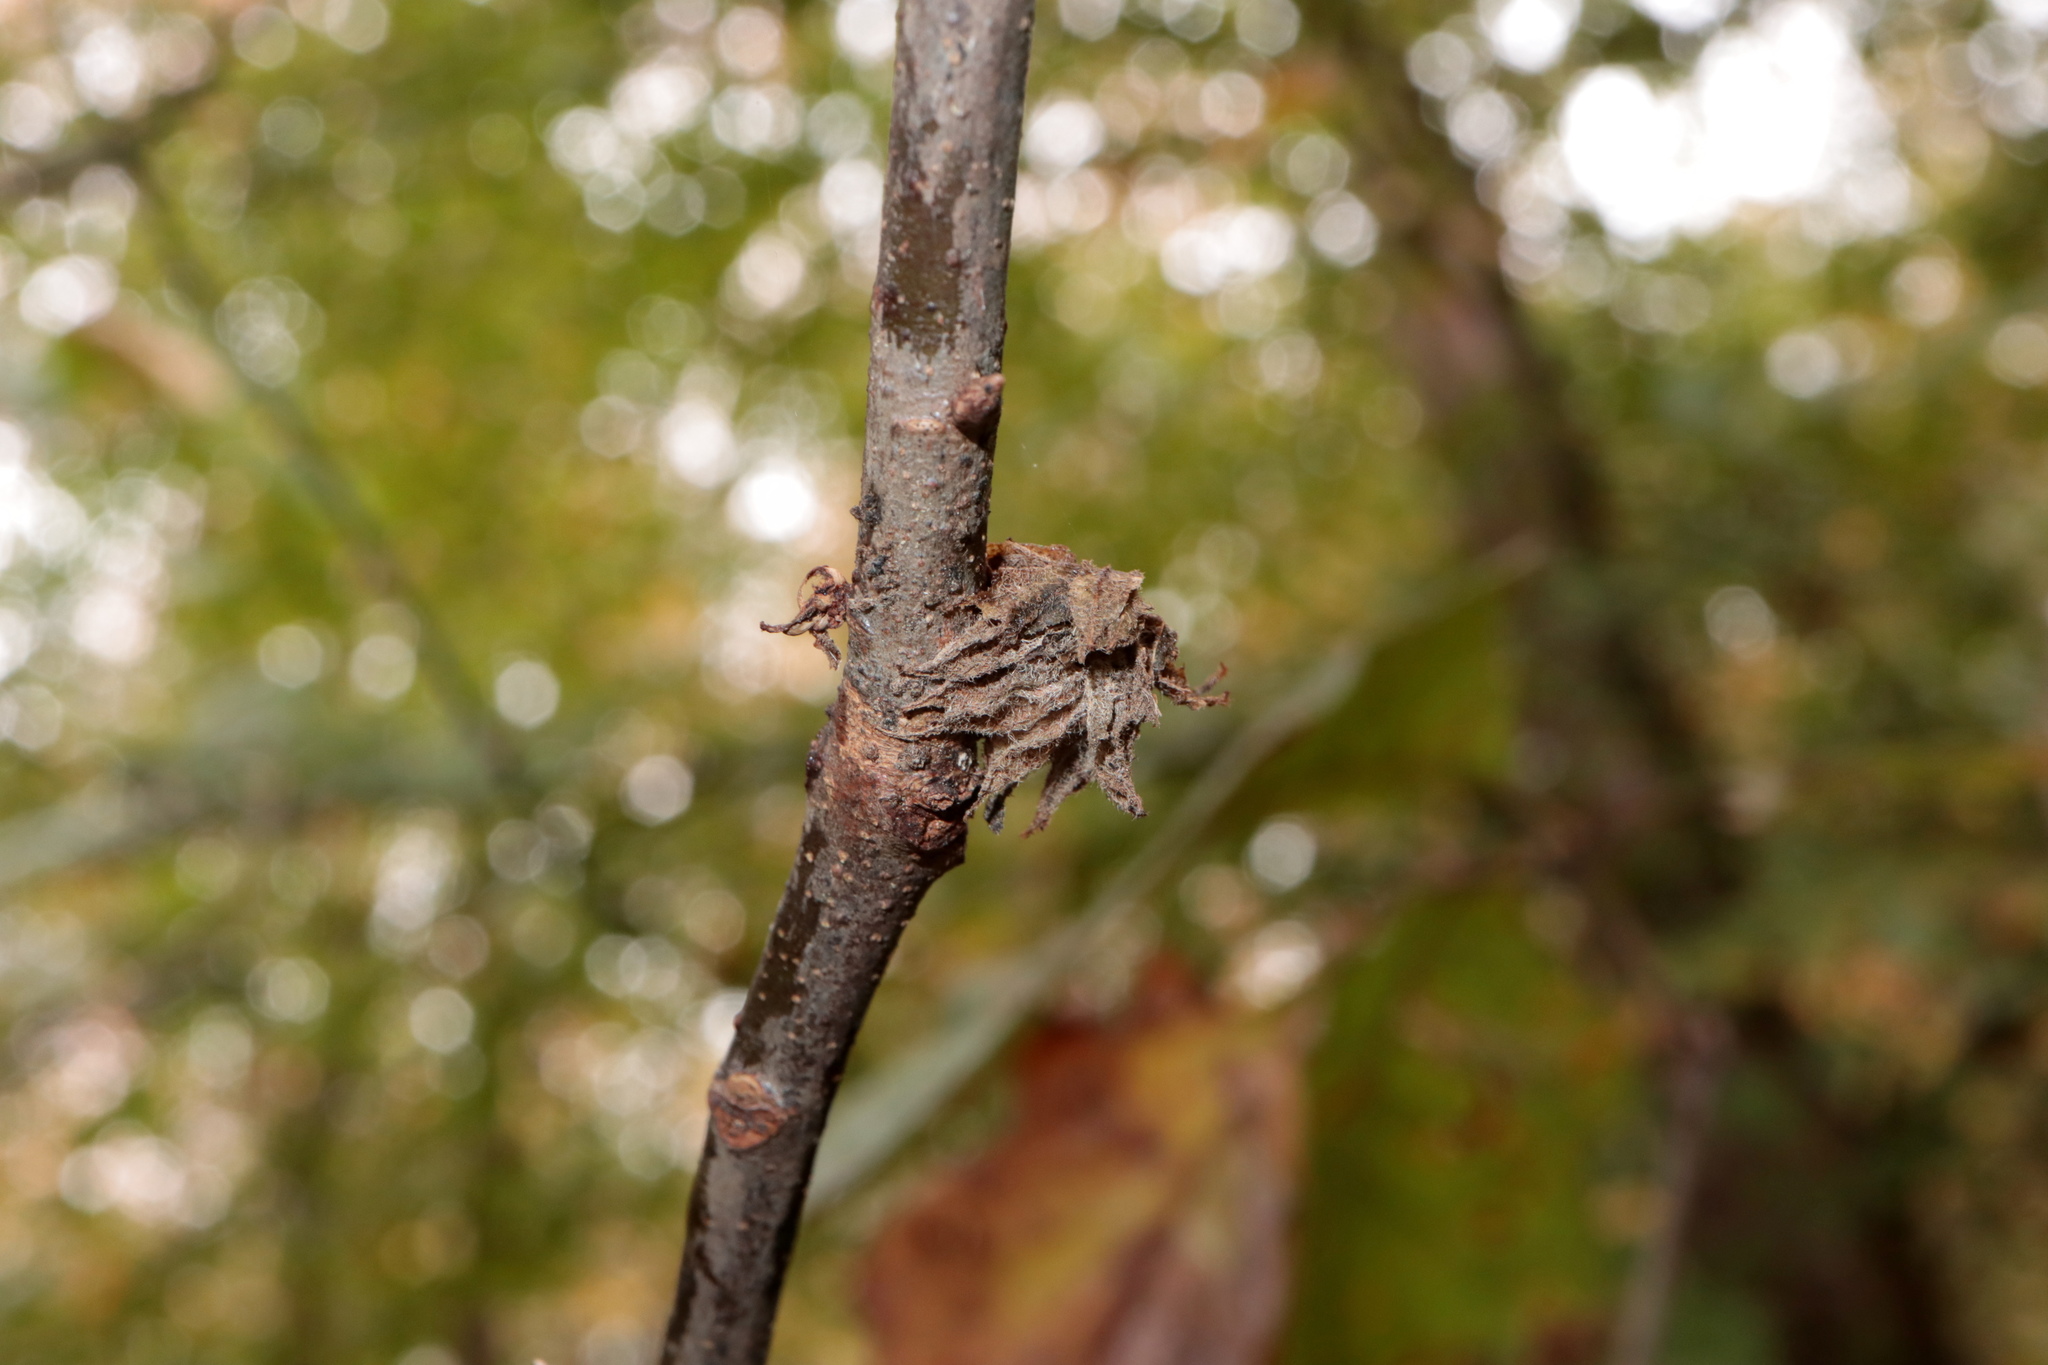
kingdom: Animalia
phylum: Arthropoda
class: Insecta
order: Hymenoptera
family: Cynipidae
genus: Dryocosmus
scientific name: Dryocosmus
